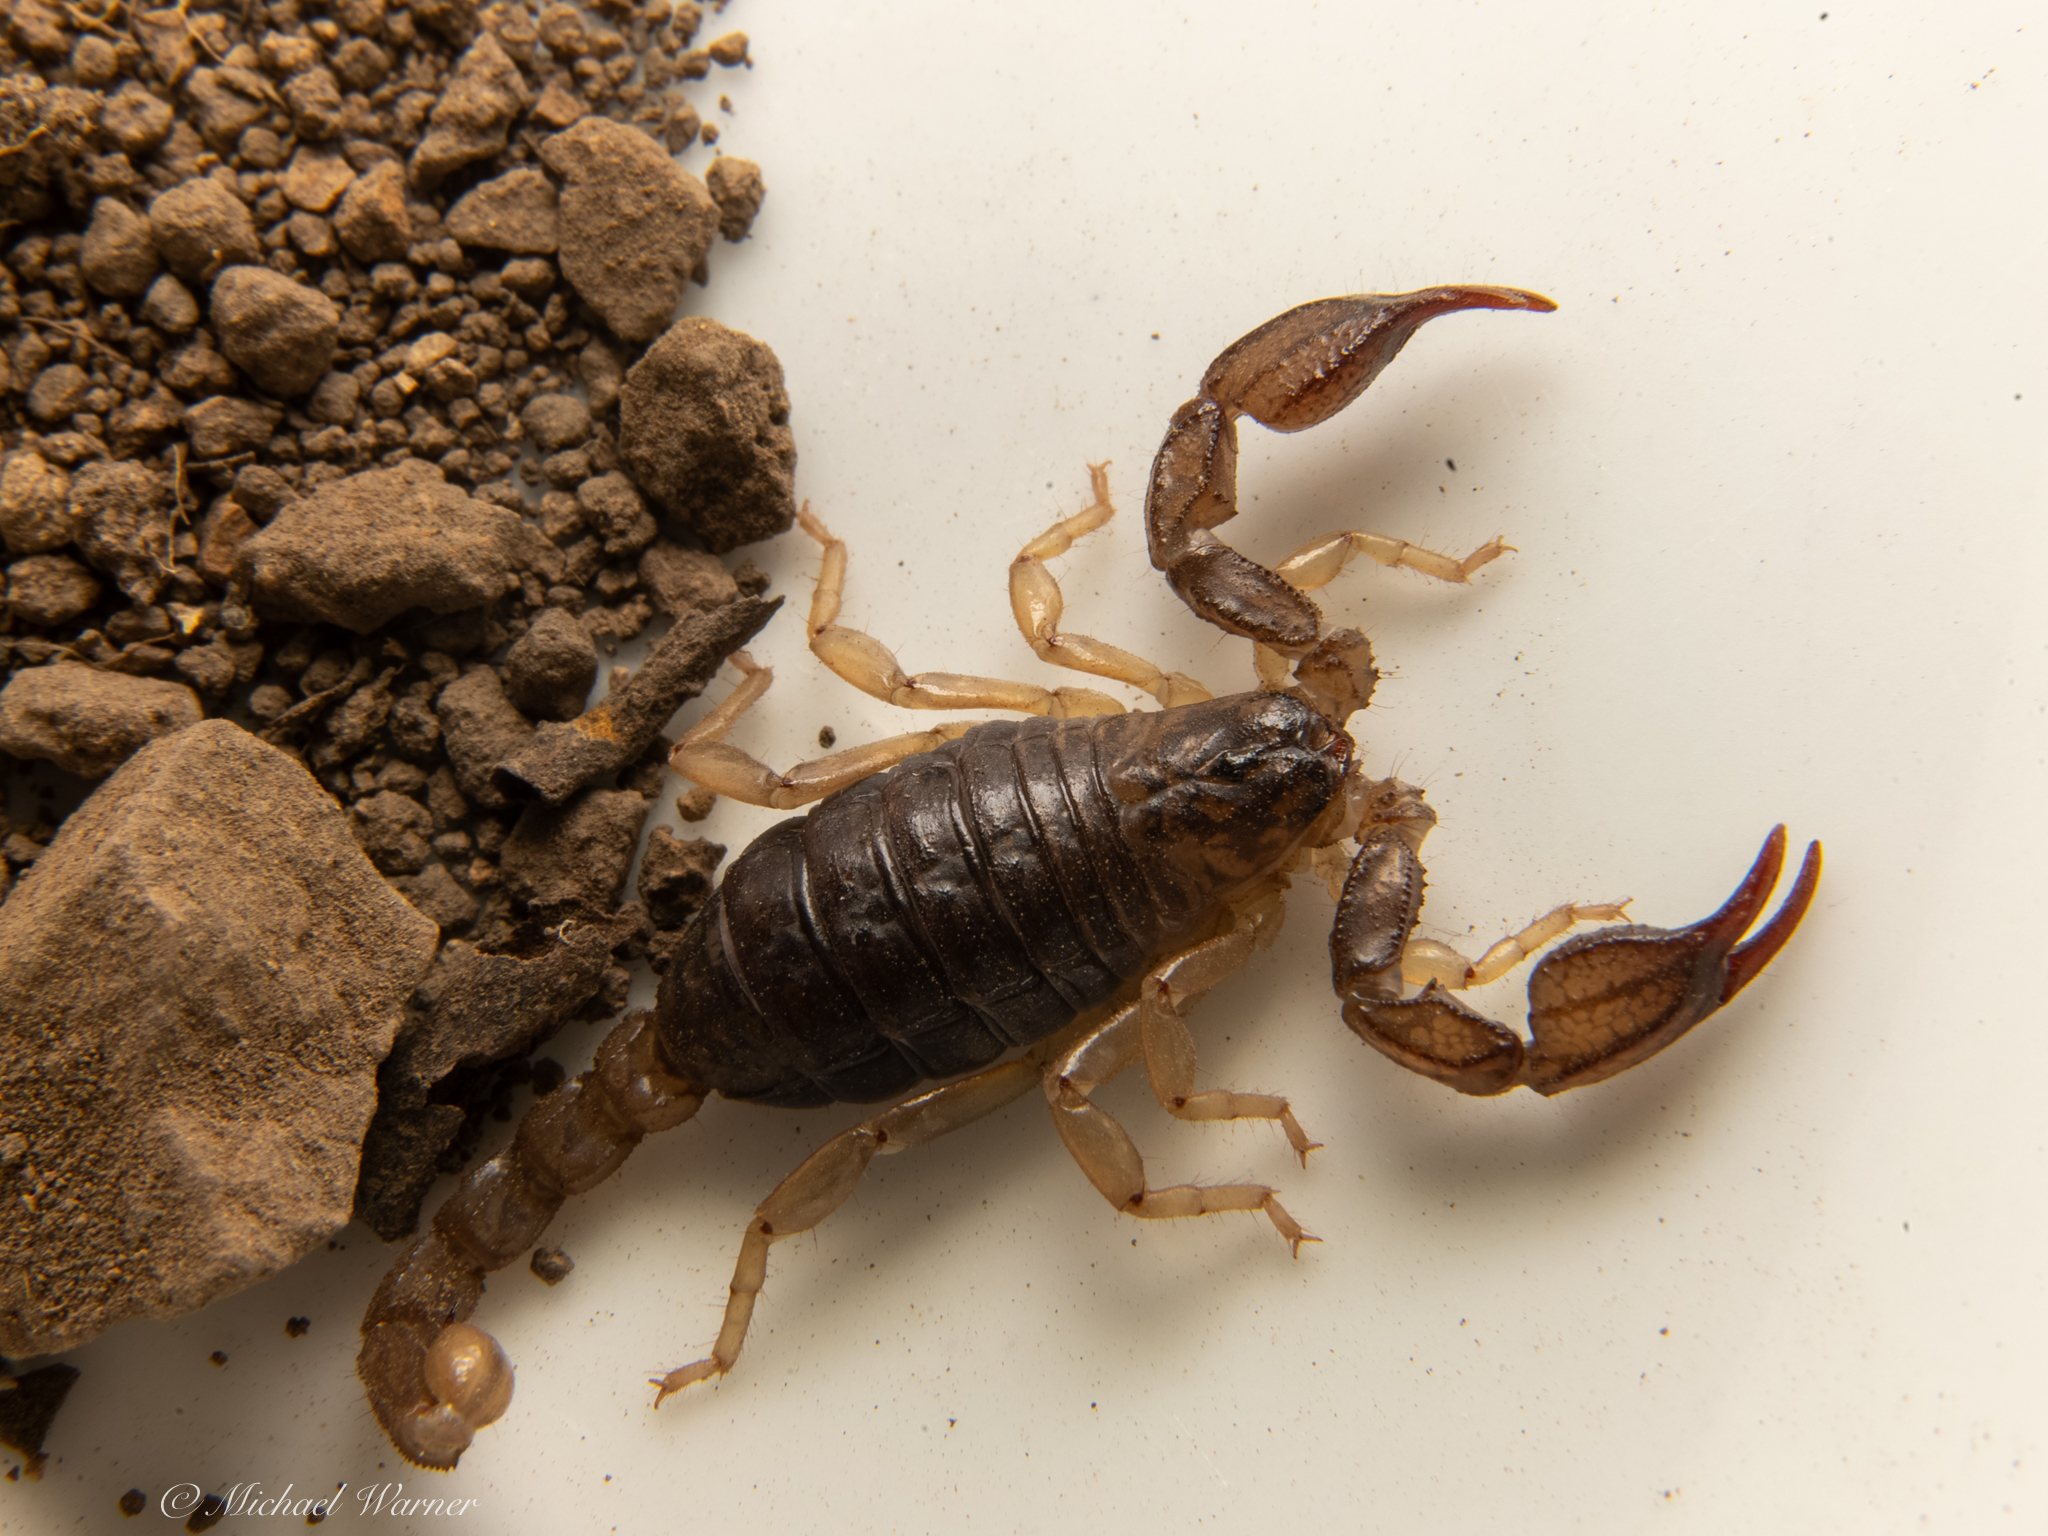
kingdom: Animalia
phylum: Arthropoda
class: Arachnida
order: Scorpiones
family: Chactidae
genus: Uroctonus
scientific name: Uroctonus mordax
